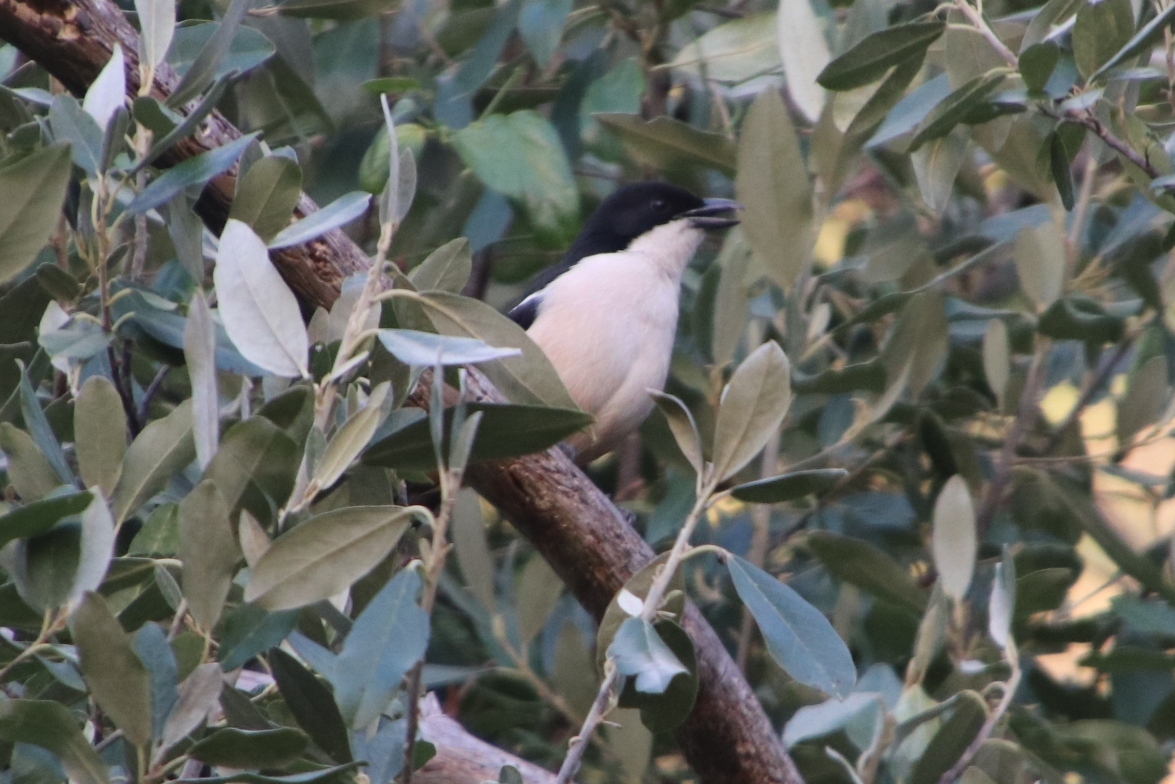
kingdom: Animalia
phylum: Chordata
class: Aves
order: Passeriformes
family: Malaconotidae
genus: Laniarius
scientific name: Laniarius ferrugineus
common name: Southern boubou
